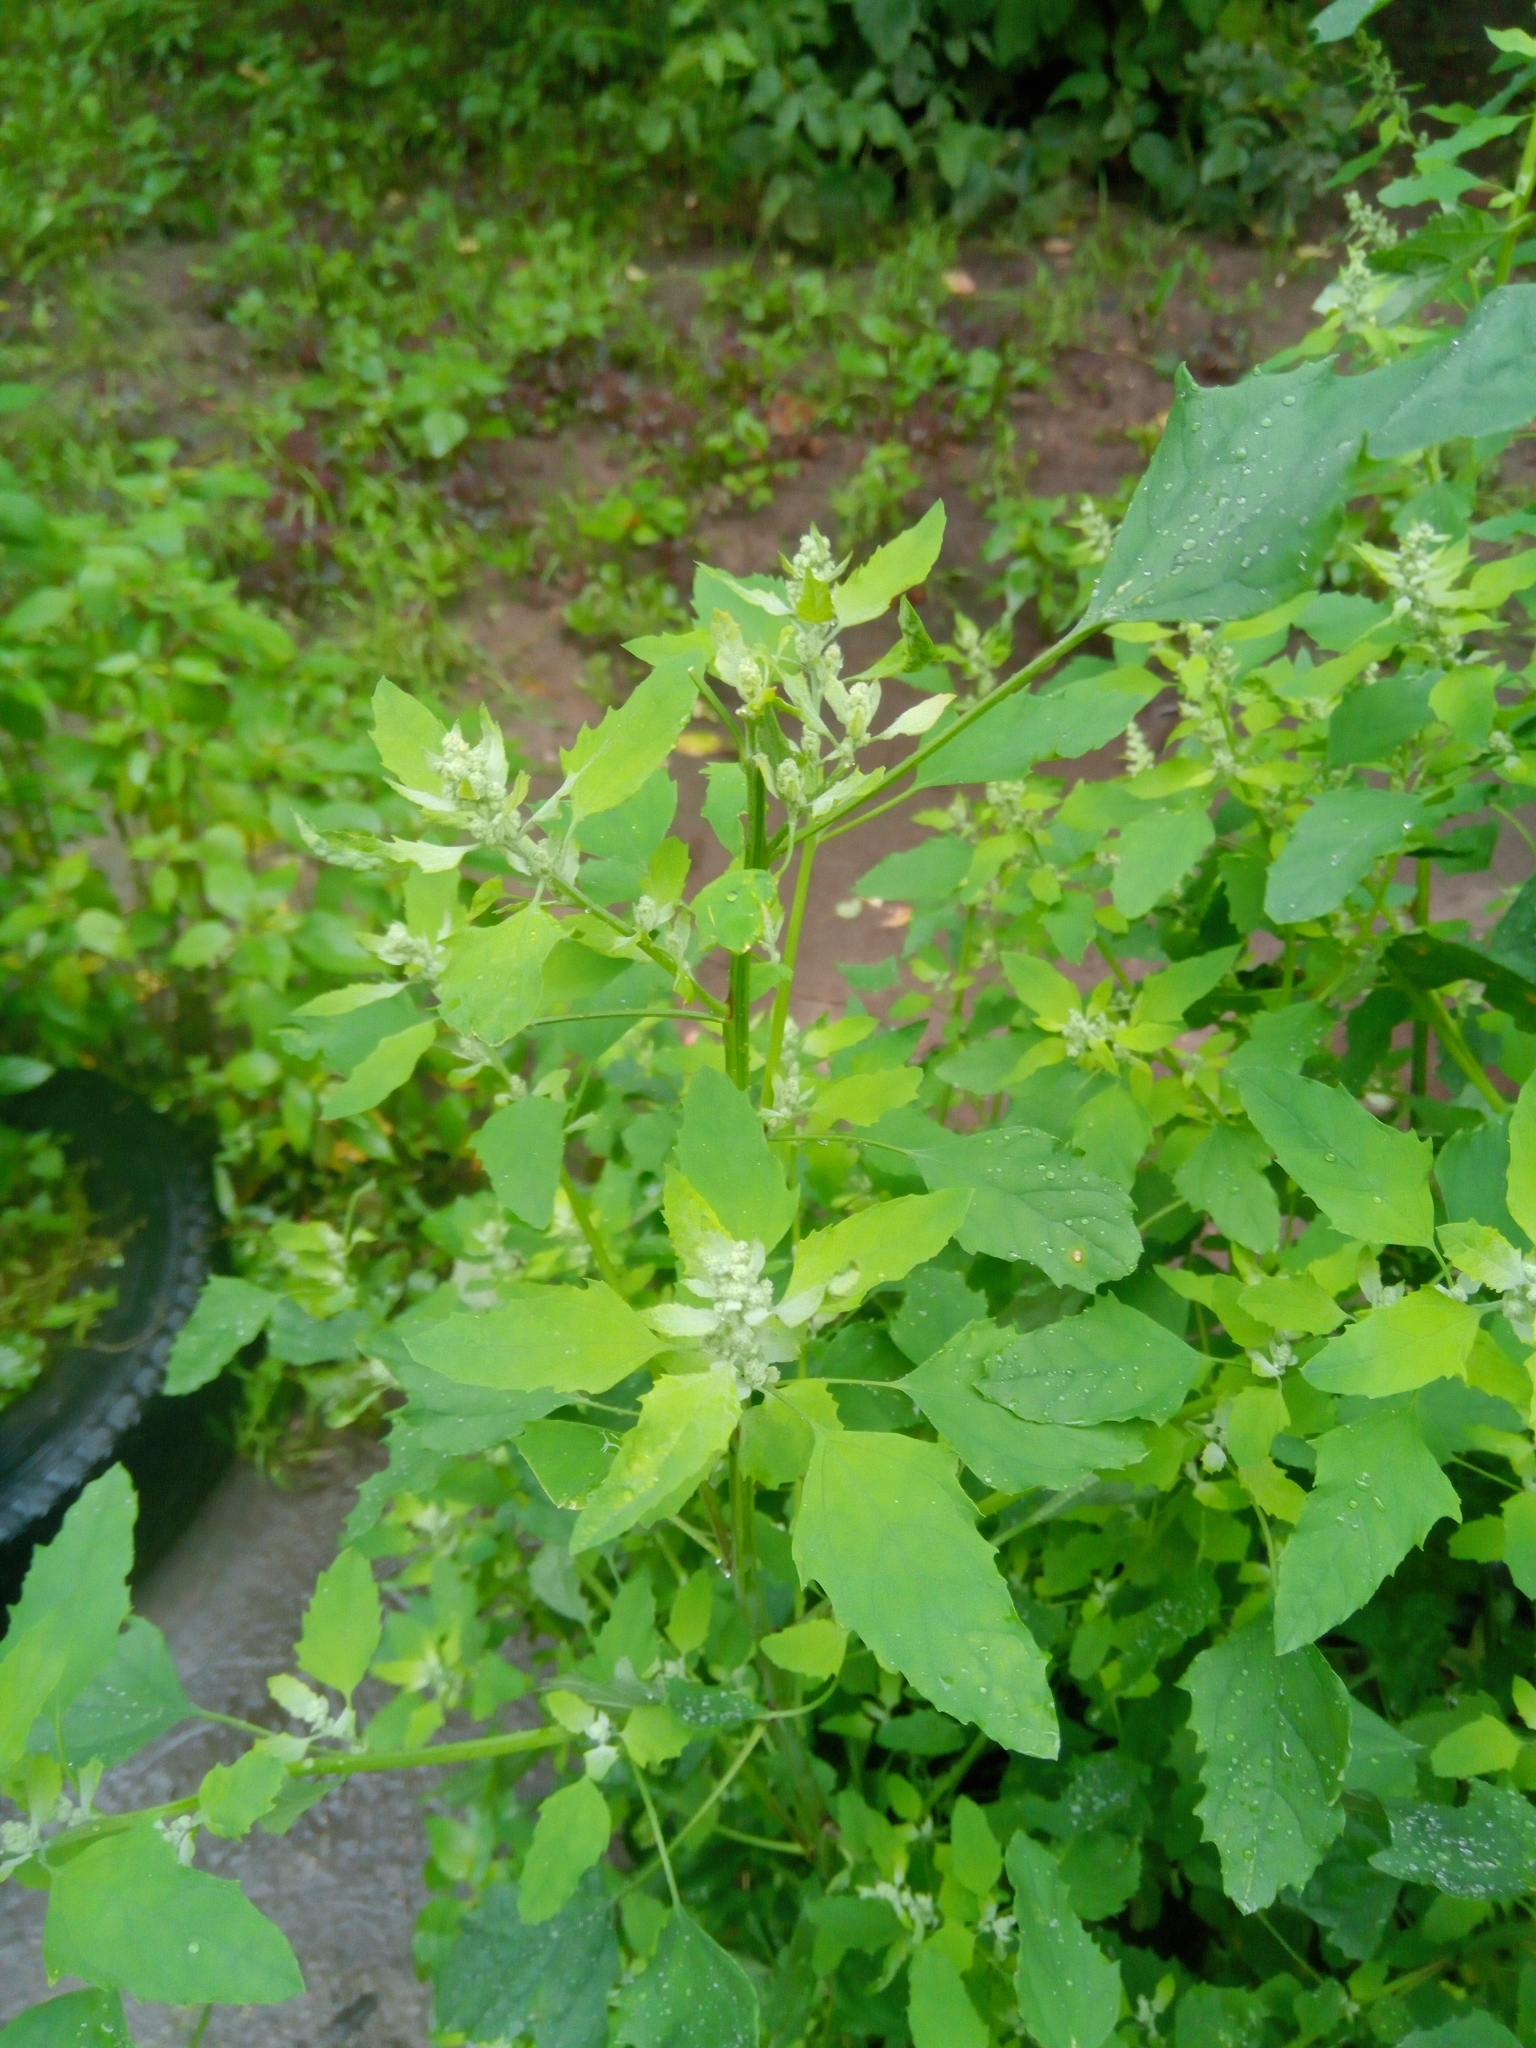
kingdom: Plantae
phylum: Tracheophyta
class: Magnoliopsida
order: Caryophyllales
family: Amaranthaceae
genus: Chenopodium
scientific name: Chenopodium album
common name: Fat-hen
